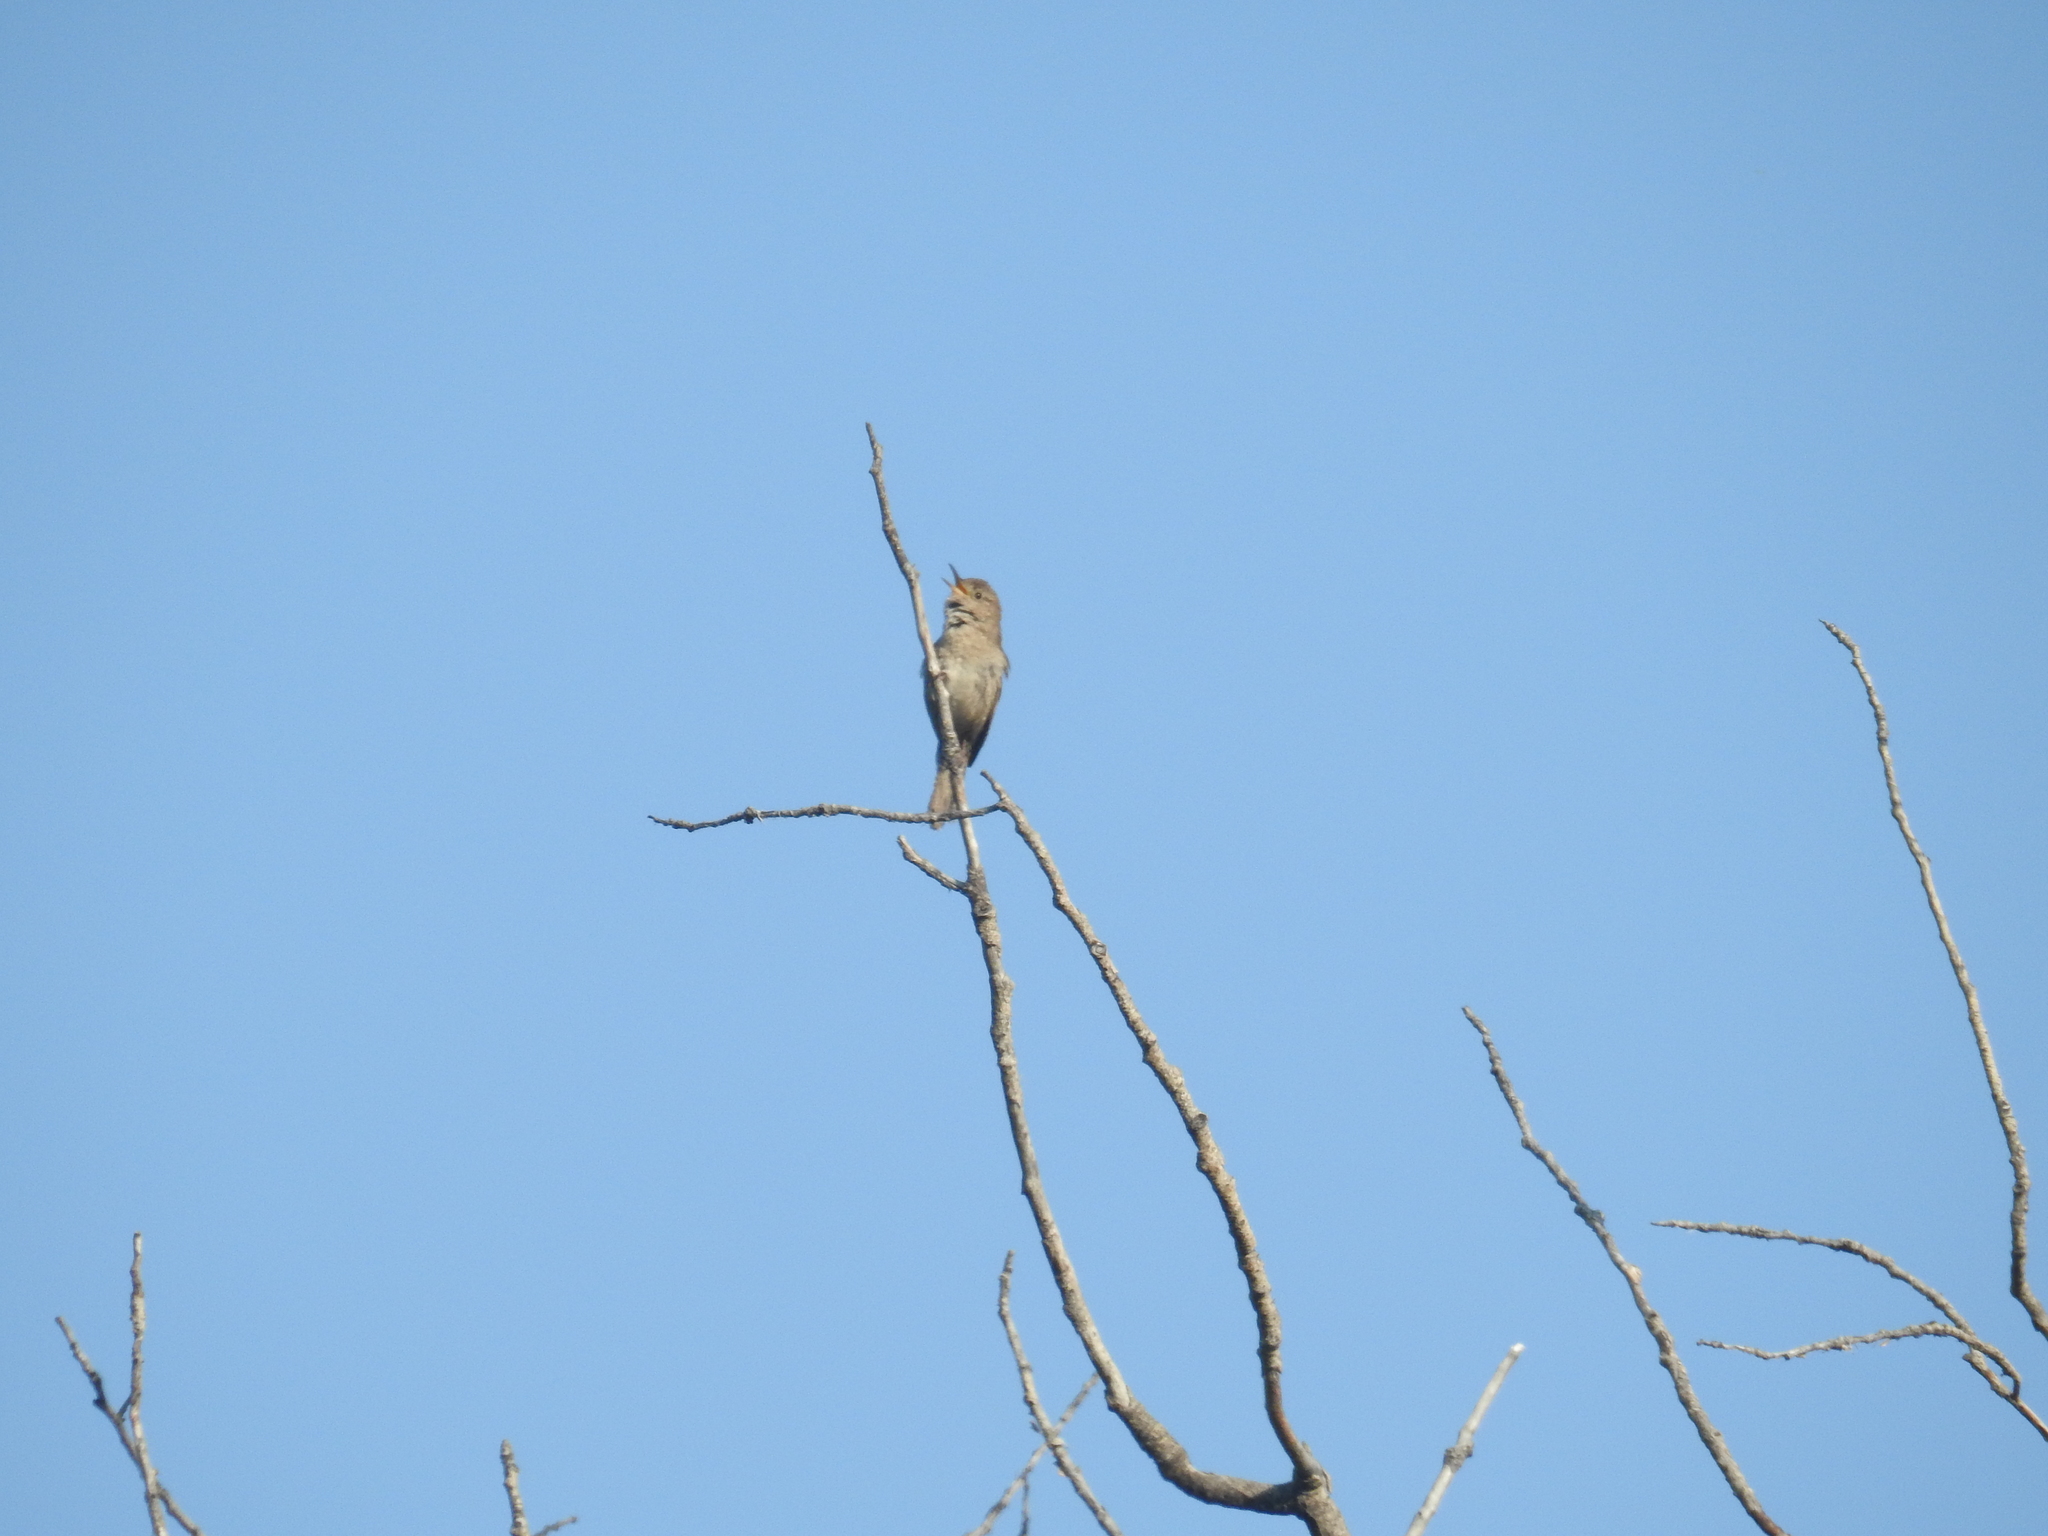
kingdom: Animalia
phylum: Chordata
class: Aves
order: Passeriformes
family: Troglodytidae
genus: Troglodytes
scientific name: Troglodytes aedon
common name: House wren
